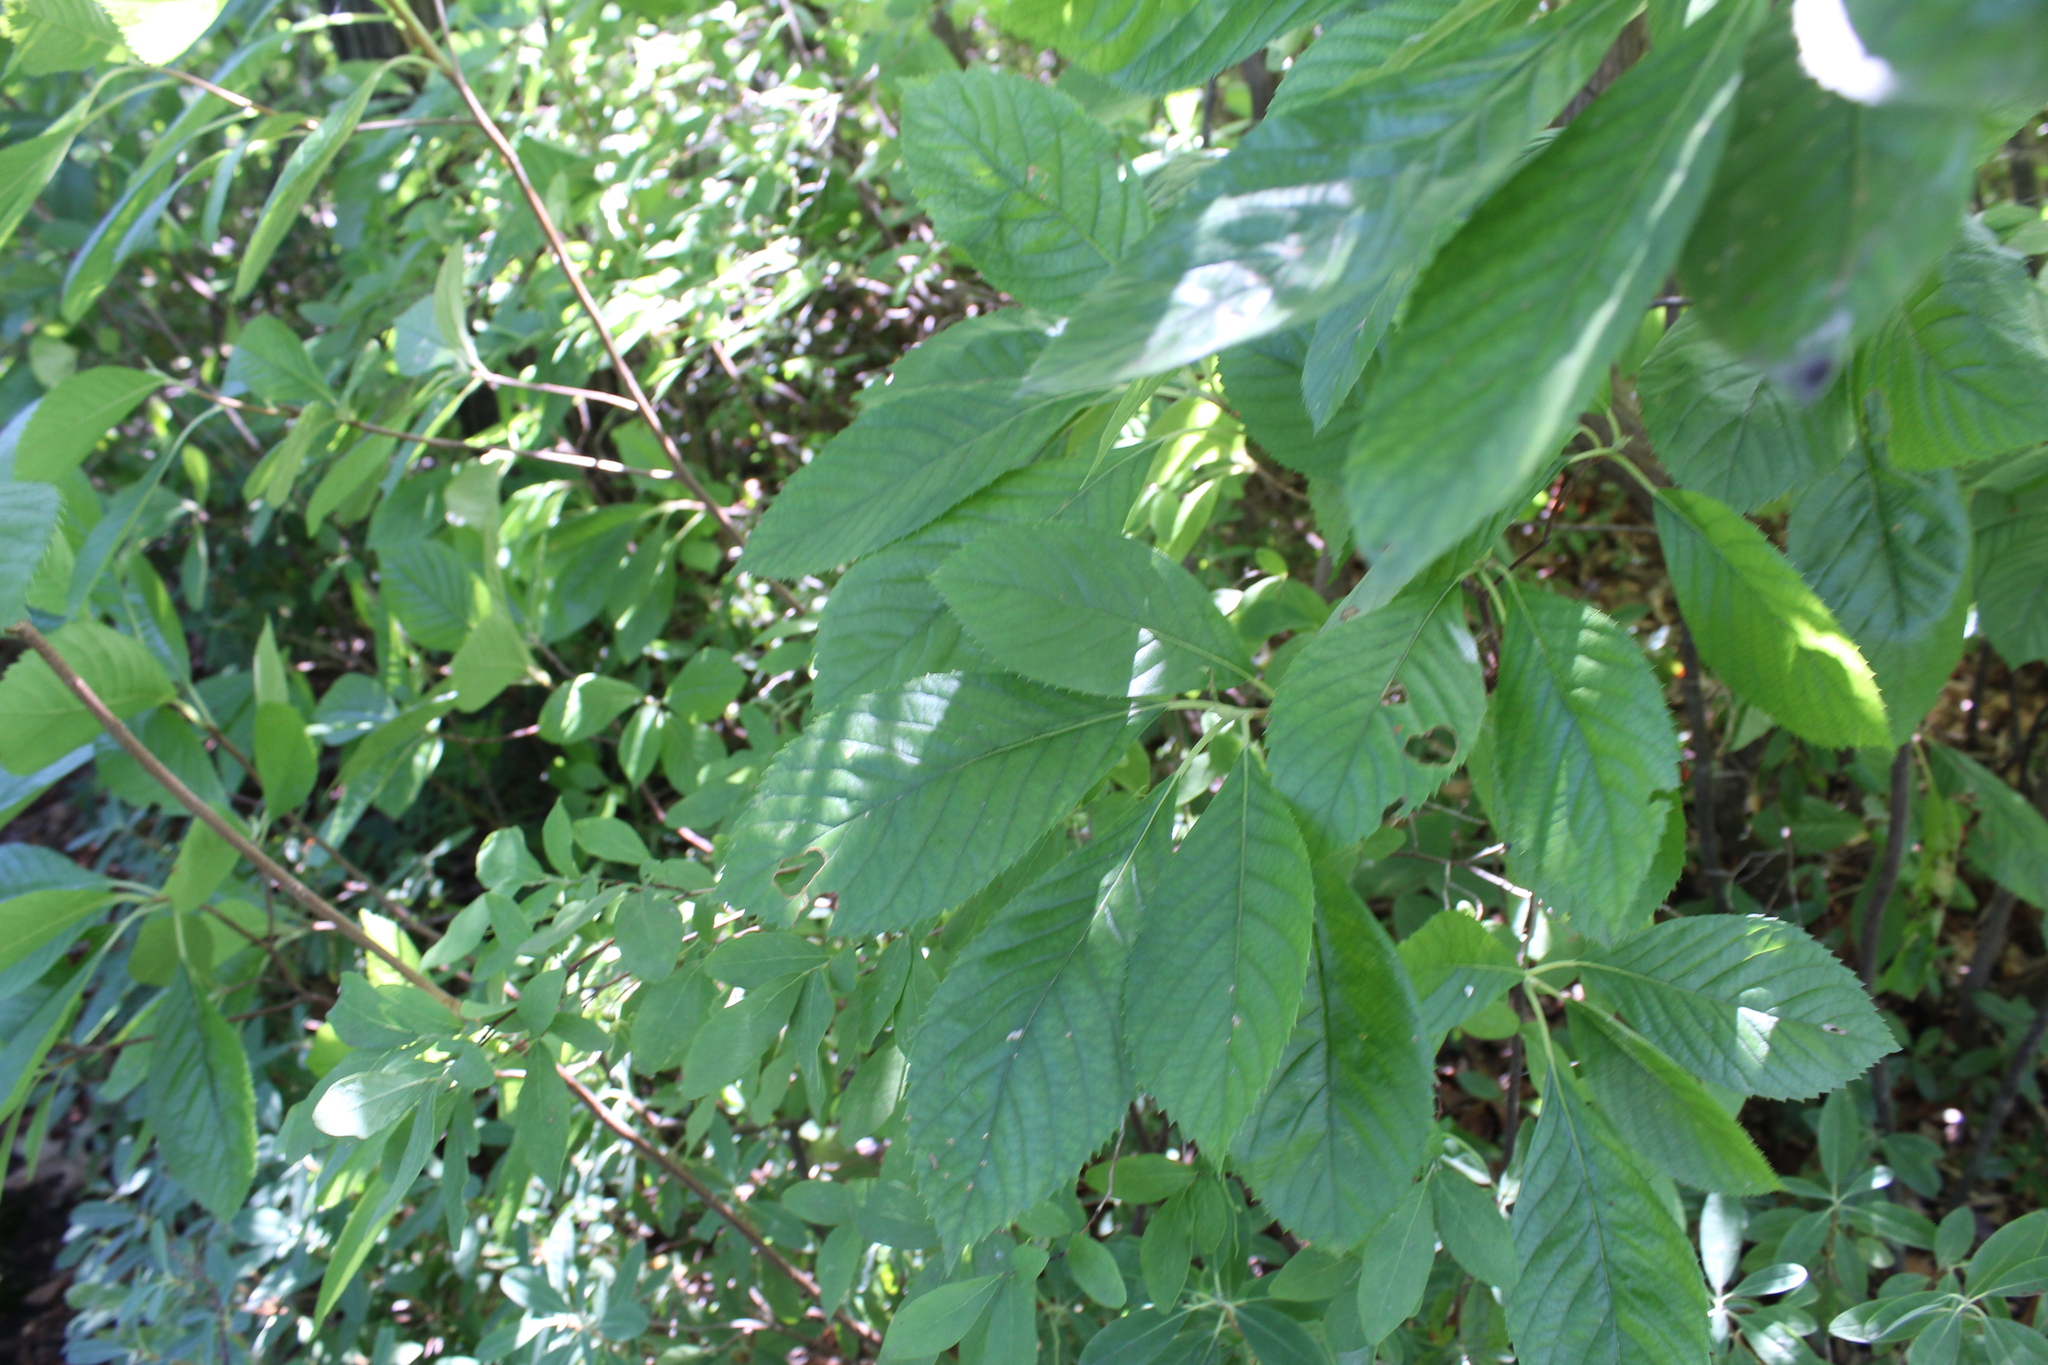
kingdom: Plantae
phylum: Tracheophyta
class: Magnoliopsida
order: Ericales
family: Clethraceae
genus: Clethra
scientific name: Clethra alnifolia
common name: Sweet pepperbush
